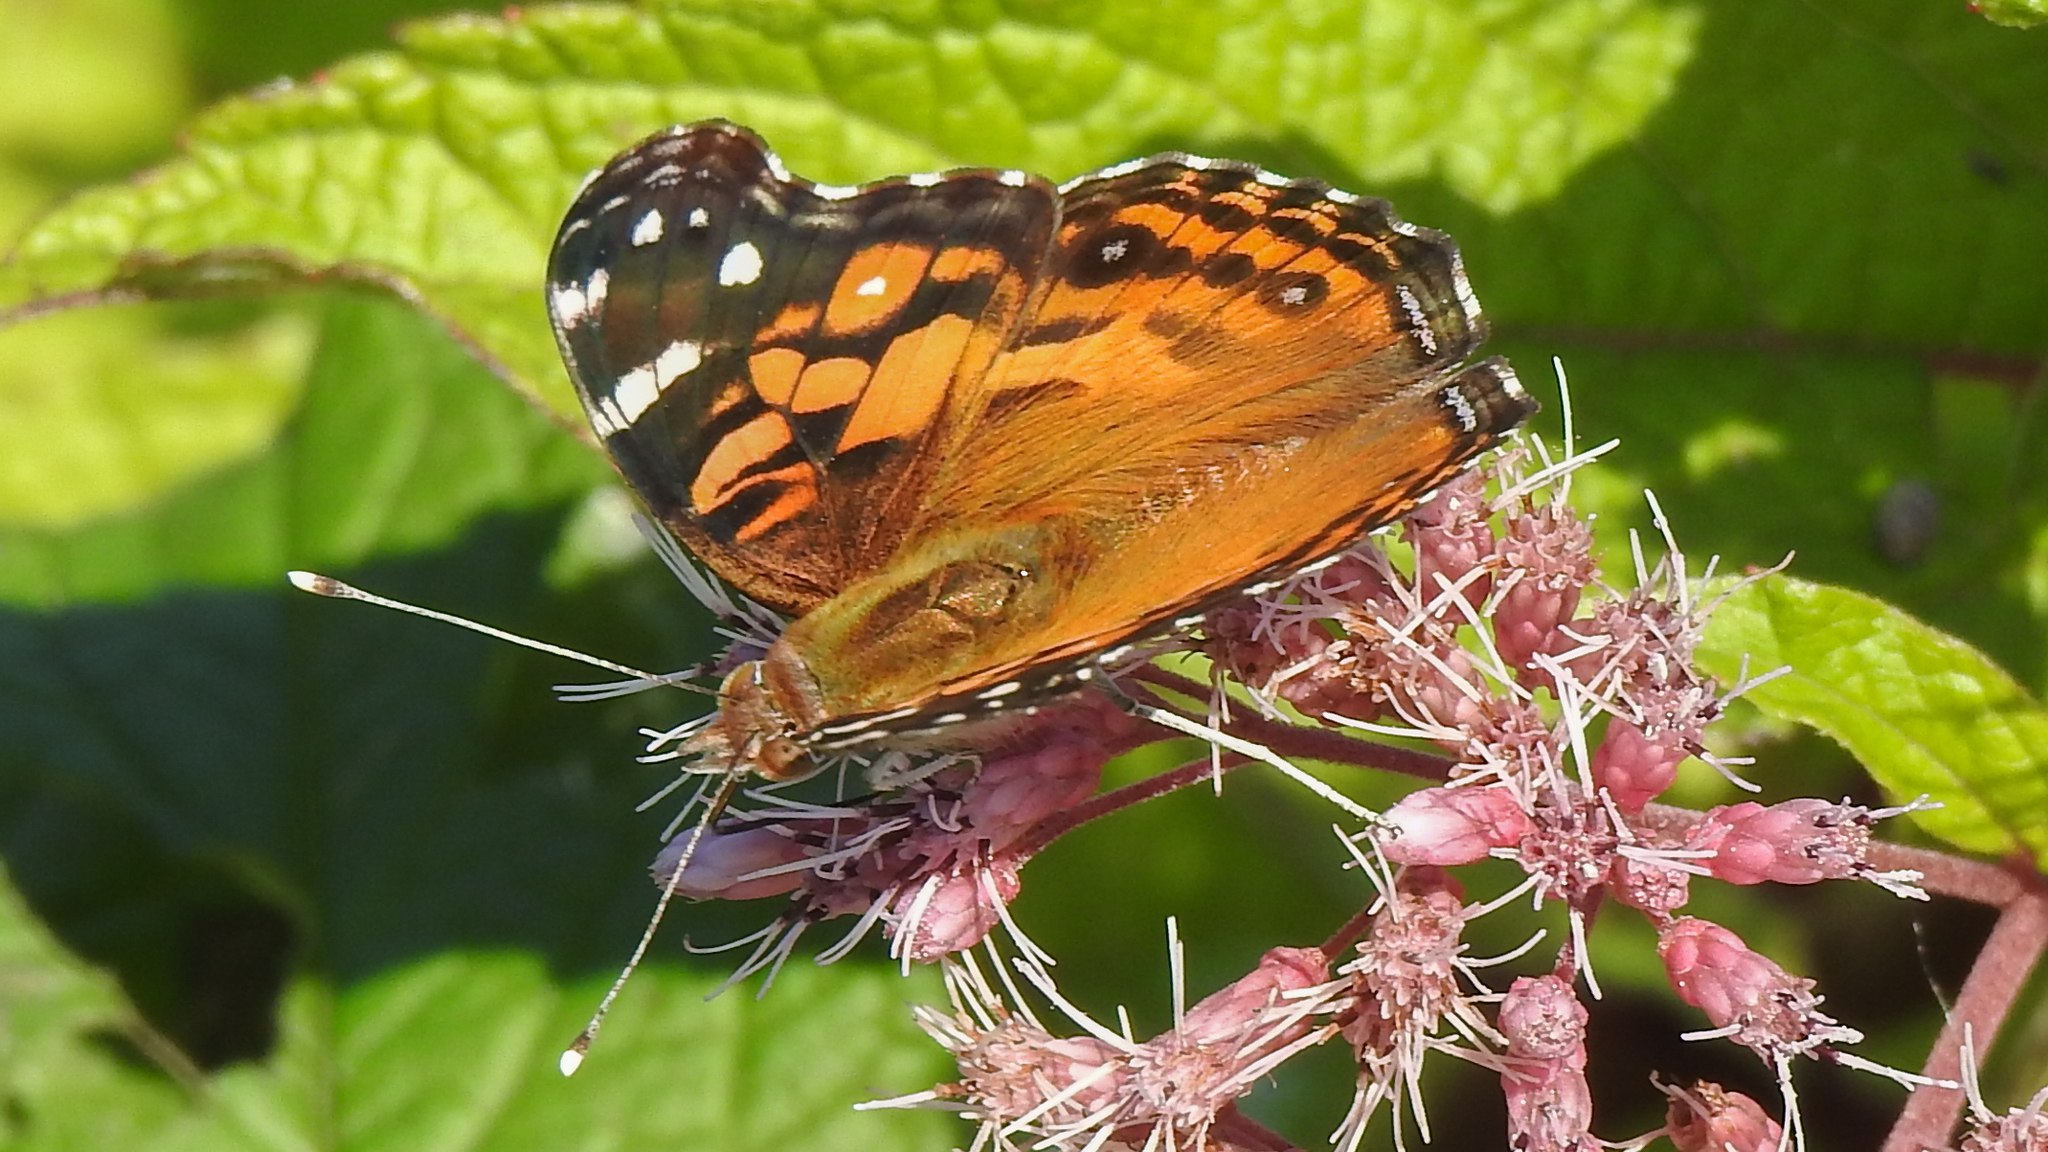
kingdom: Animalia
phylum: Arthropoda
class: Insecta
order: Lepidoptera
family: Nymphalidae
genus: Vanessa
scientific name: Vanessa virginiensis
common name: American lady
